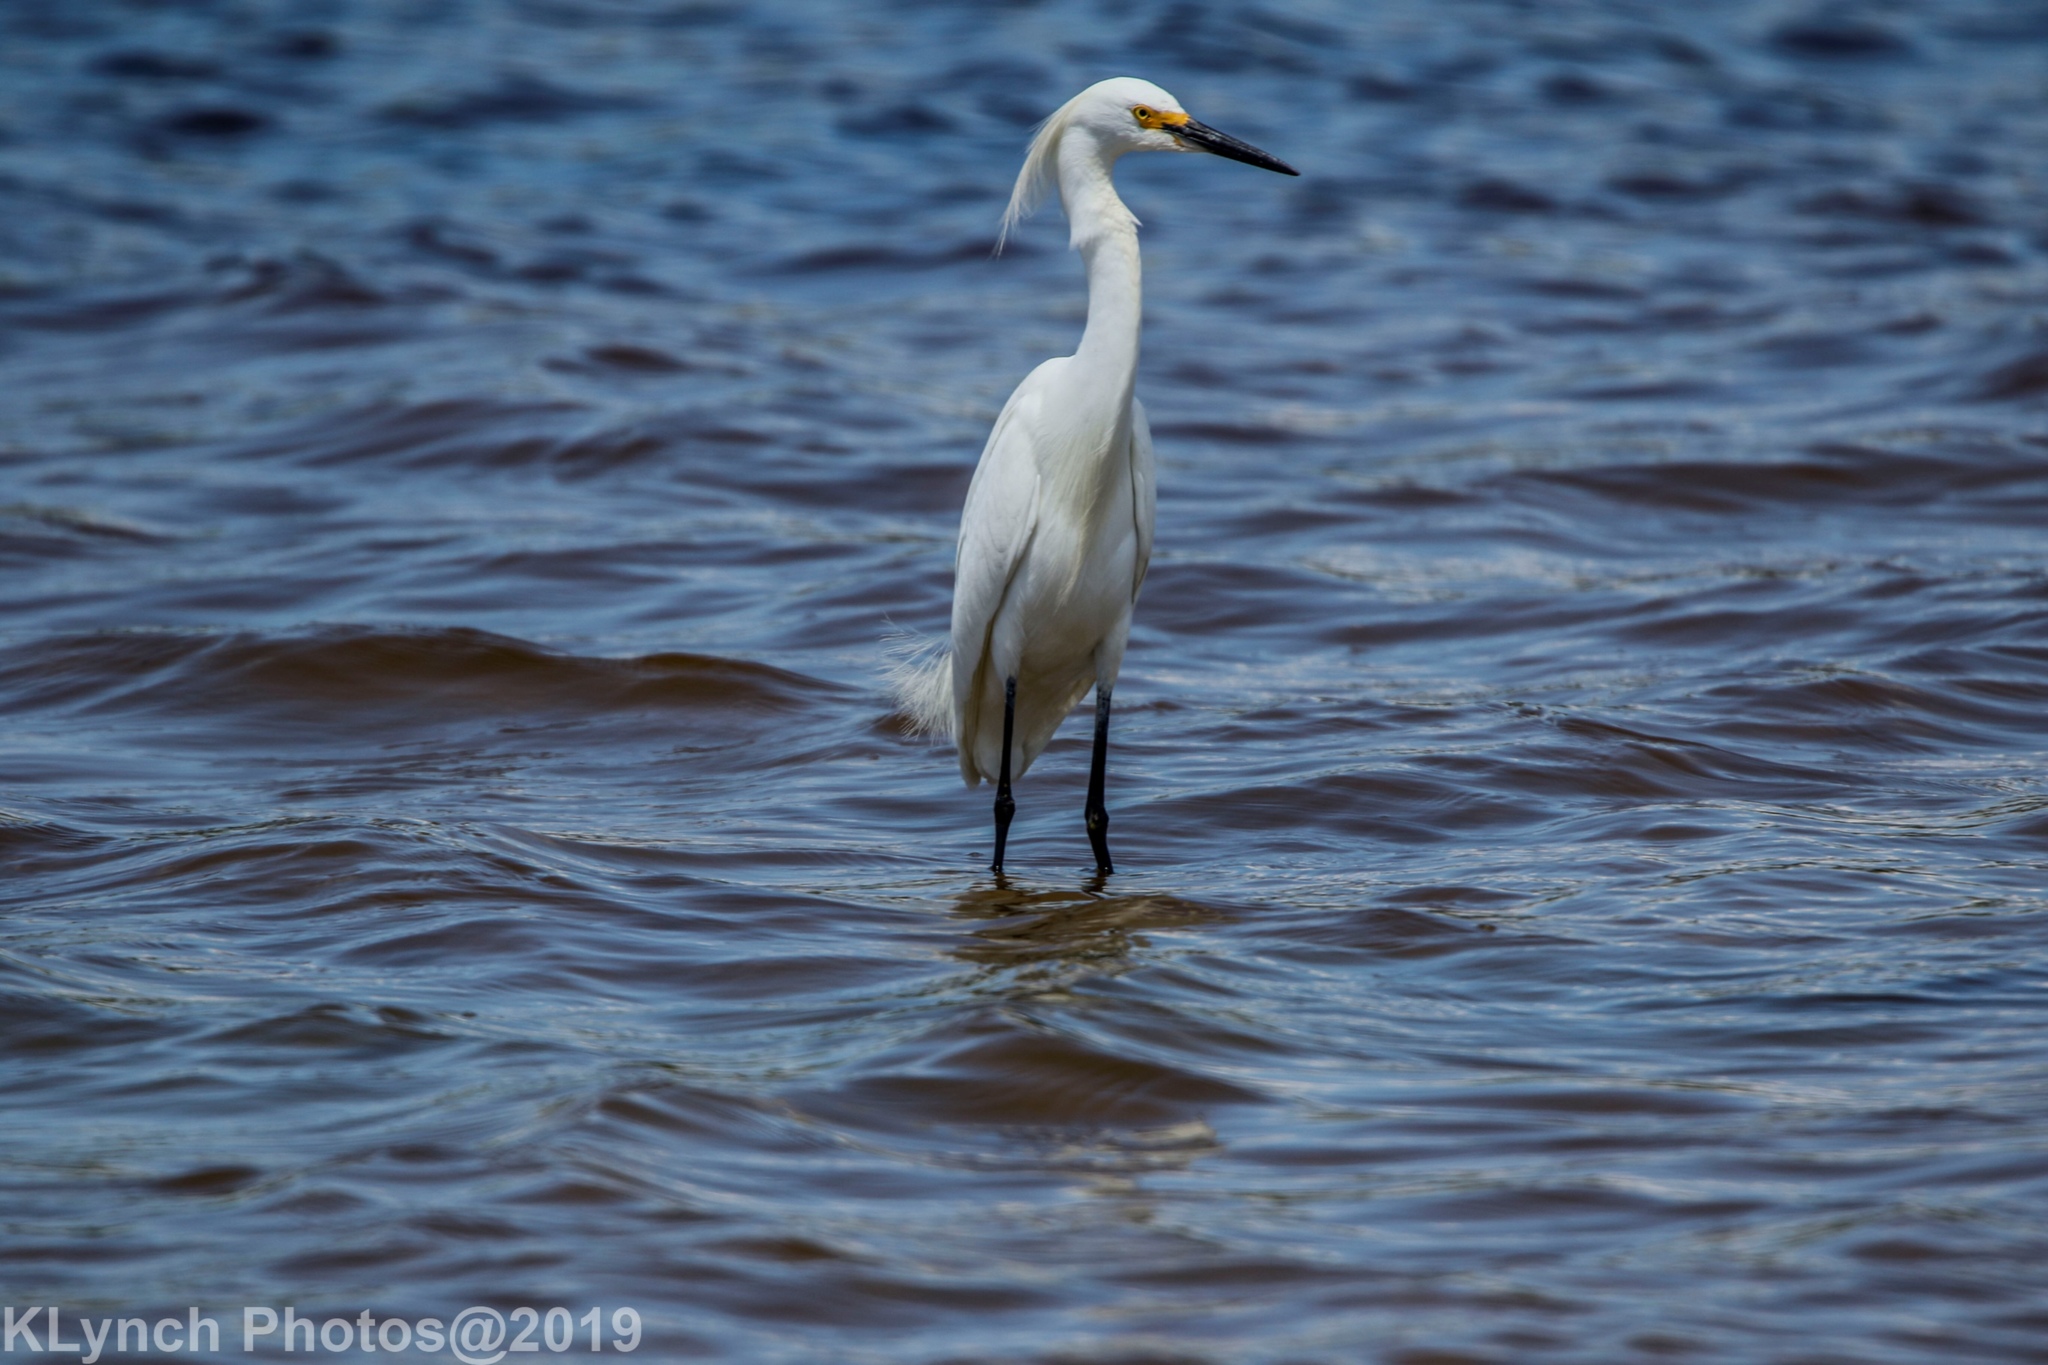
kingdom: Animalia
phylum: Chordata
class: Aves
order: Pelecaniformes
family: Ardeidae
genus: Egretta
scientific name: Egretta thula
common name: Snowy egret
